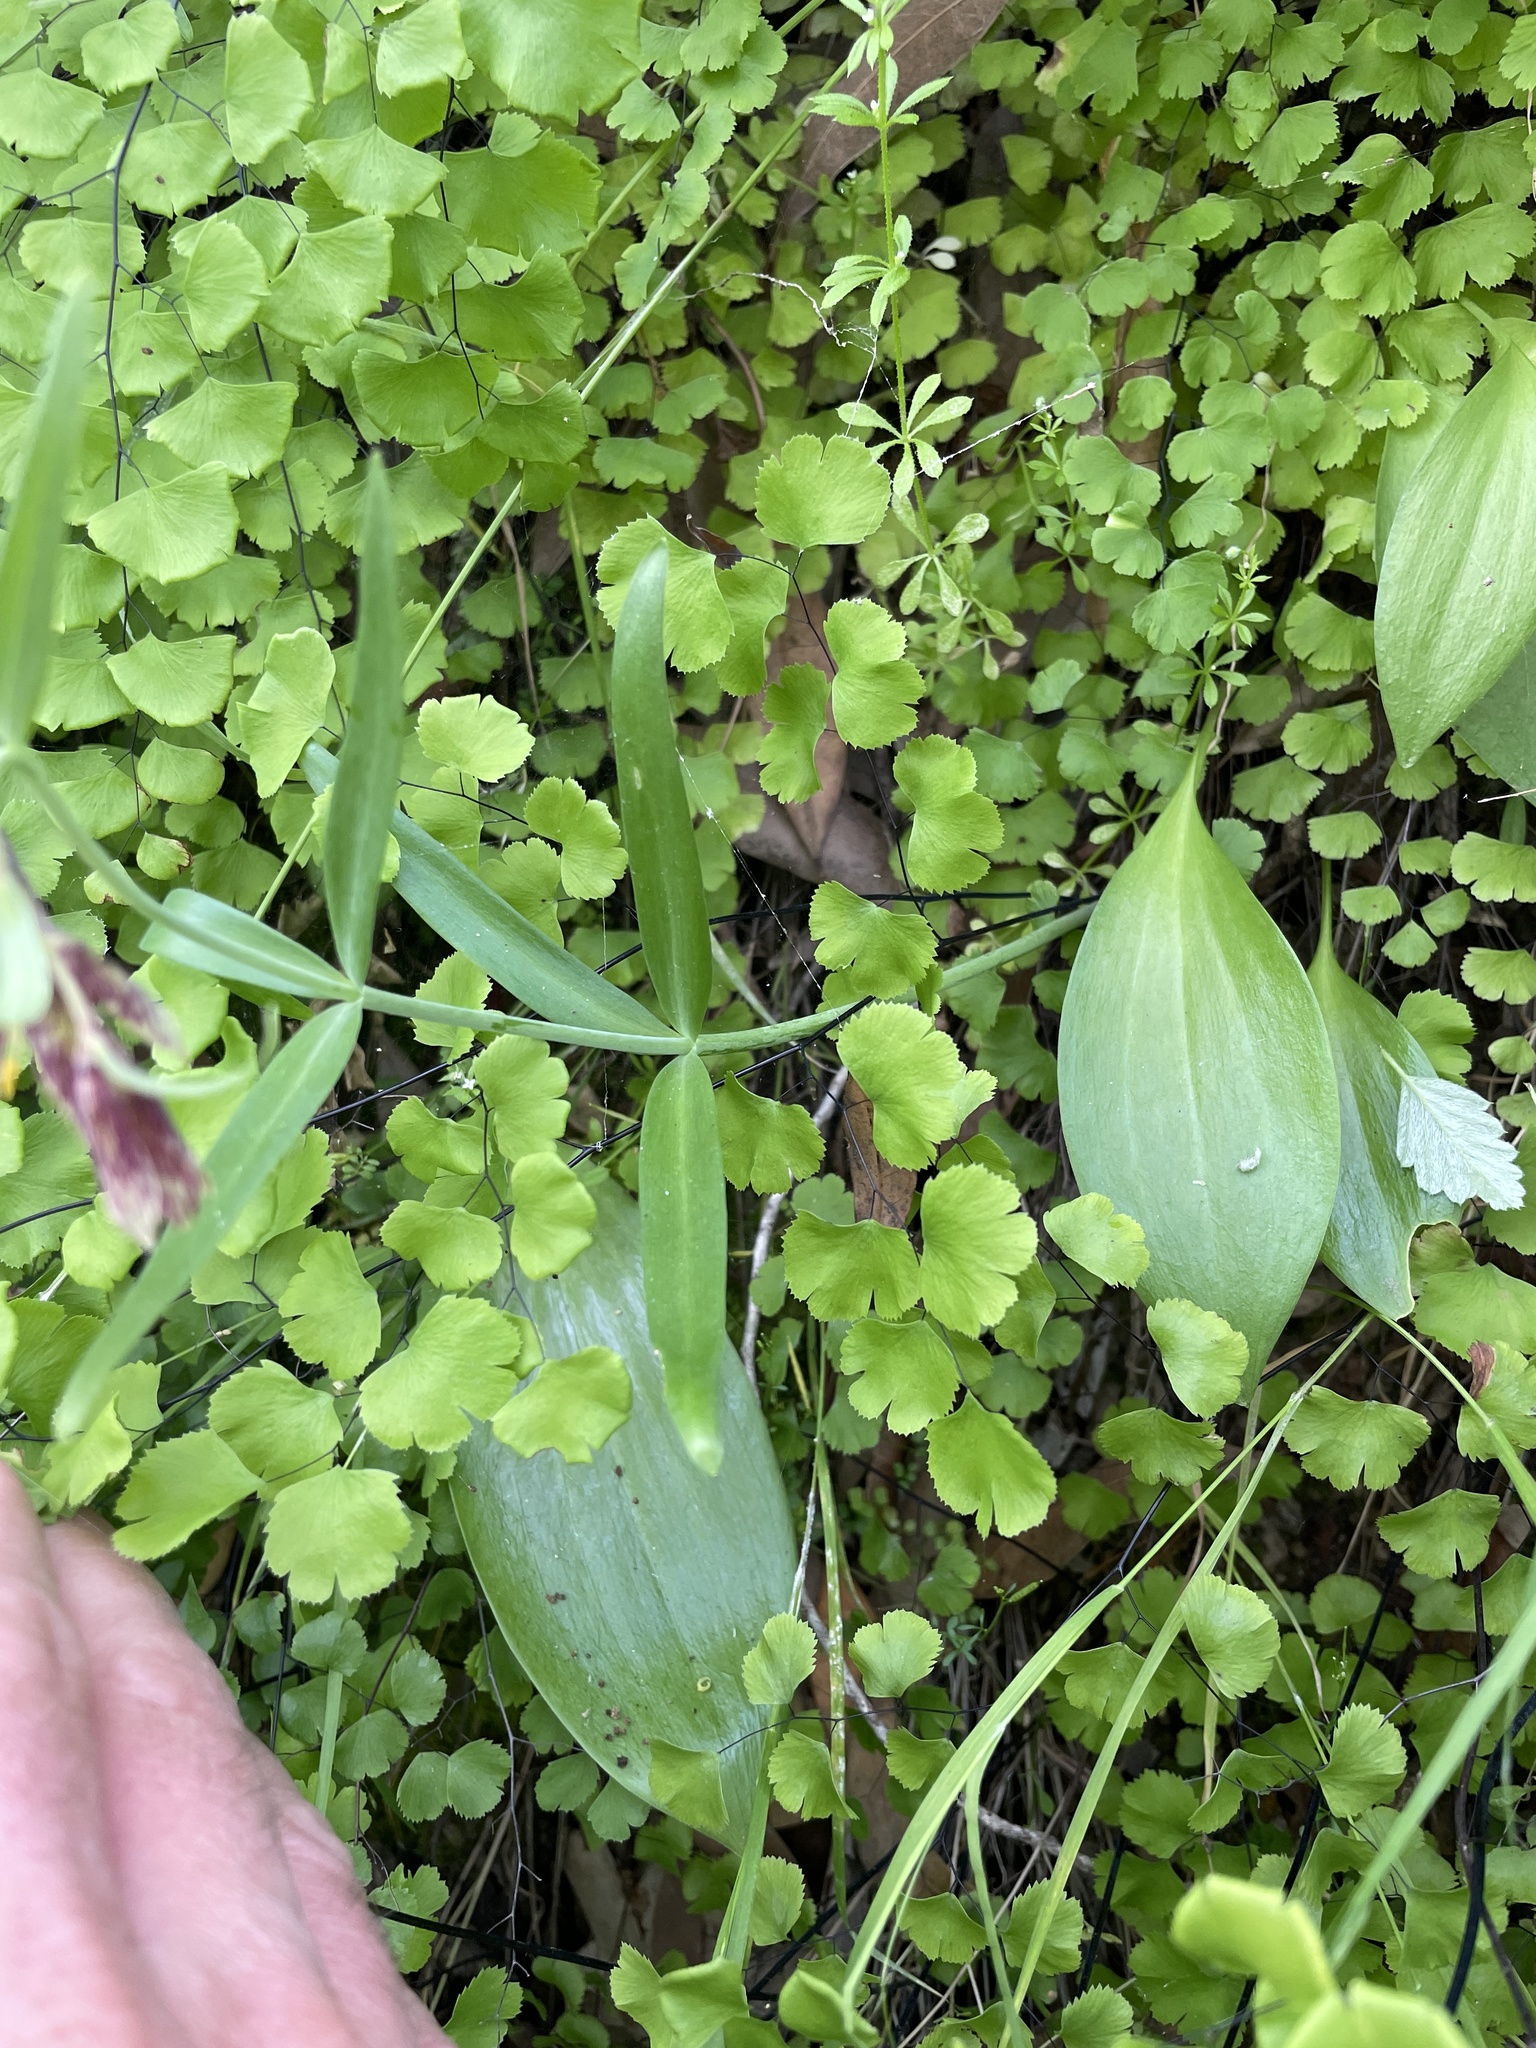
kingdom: Plantae
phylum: Tracheophyta
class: Liliopsida
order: Liliales
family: Liliaceae
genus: Fritillaria
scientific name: Fritillaria affinis
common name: Ojai fritillary
